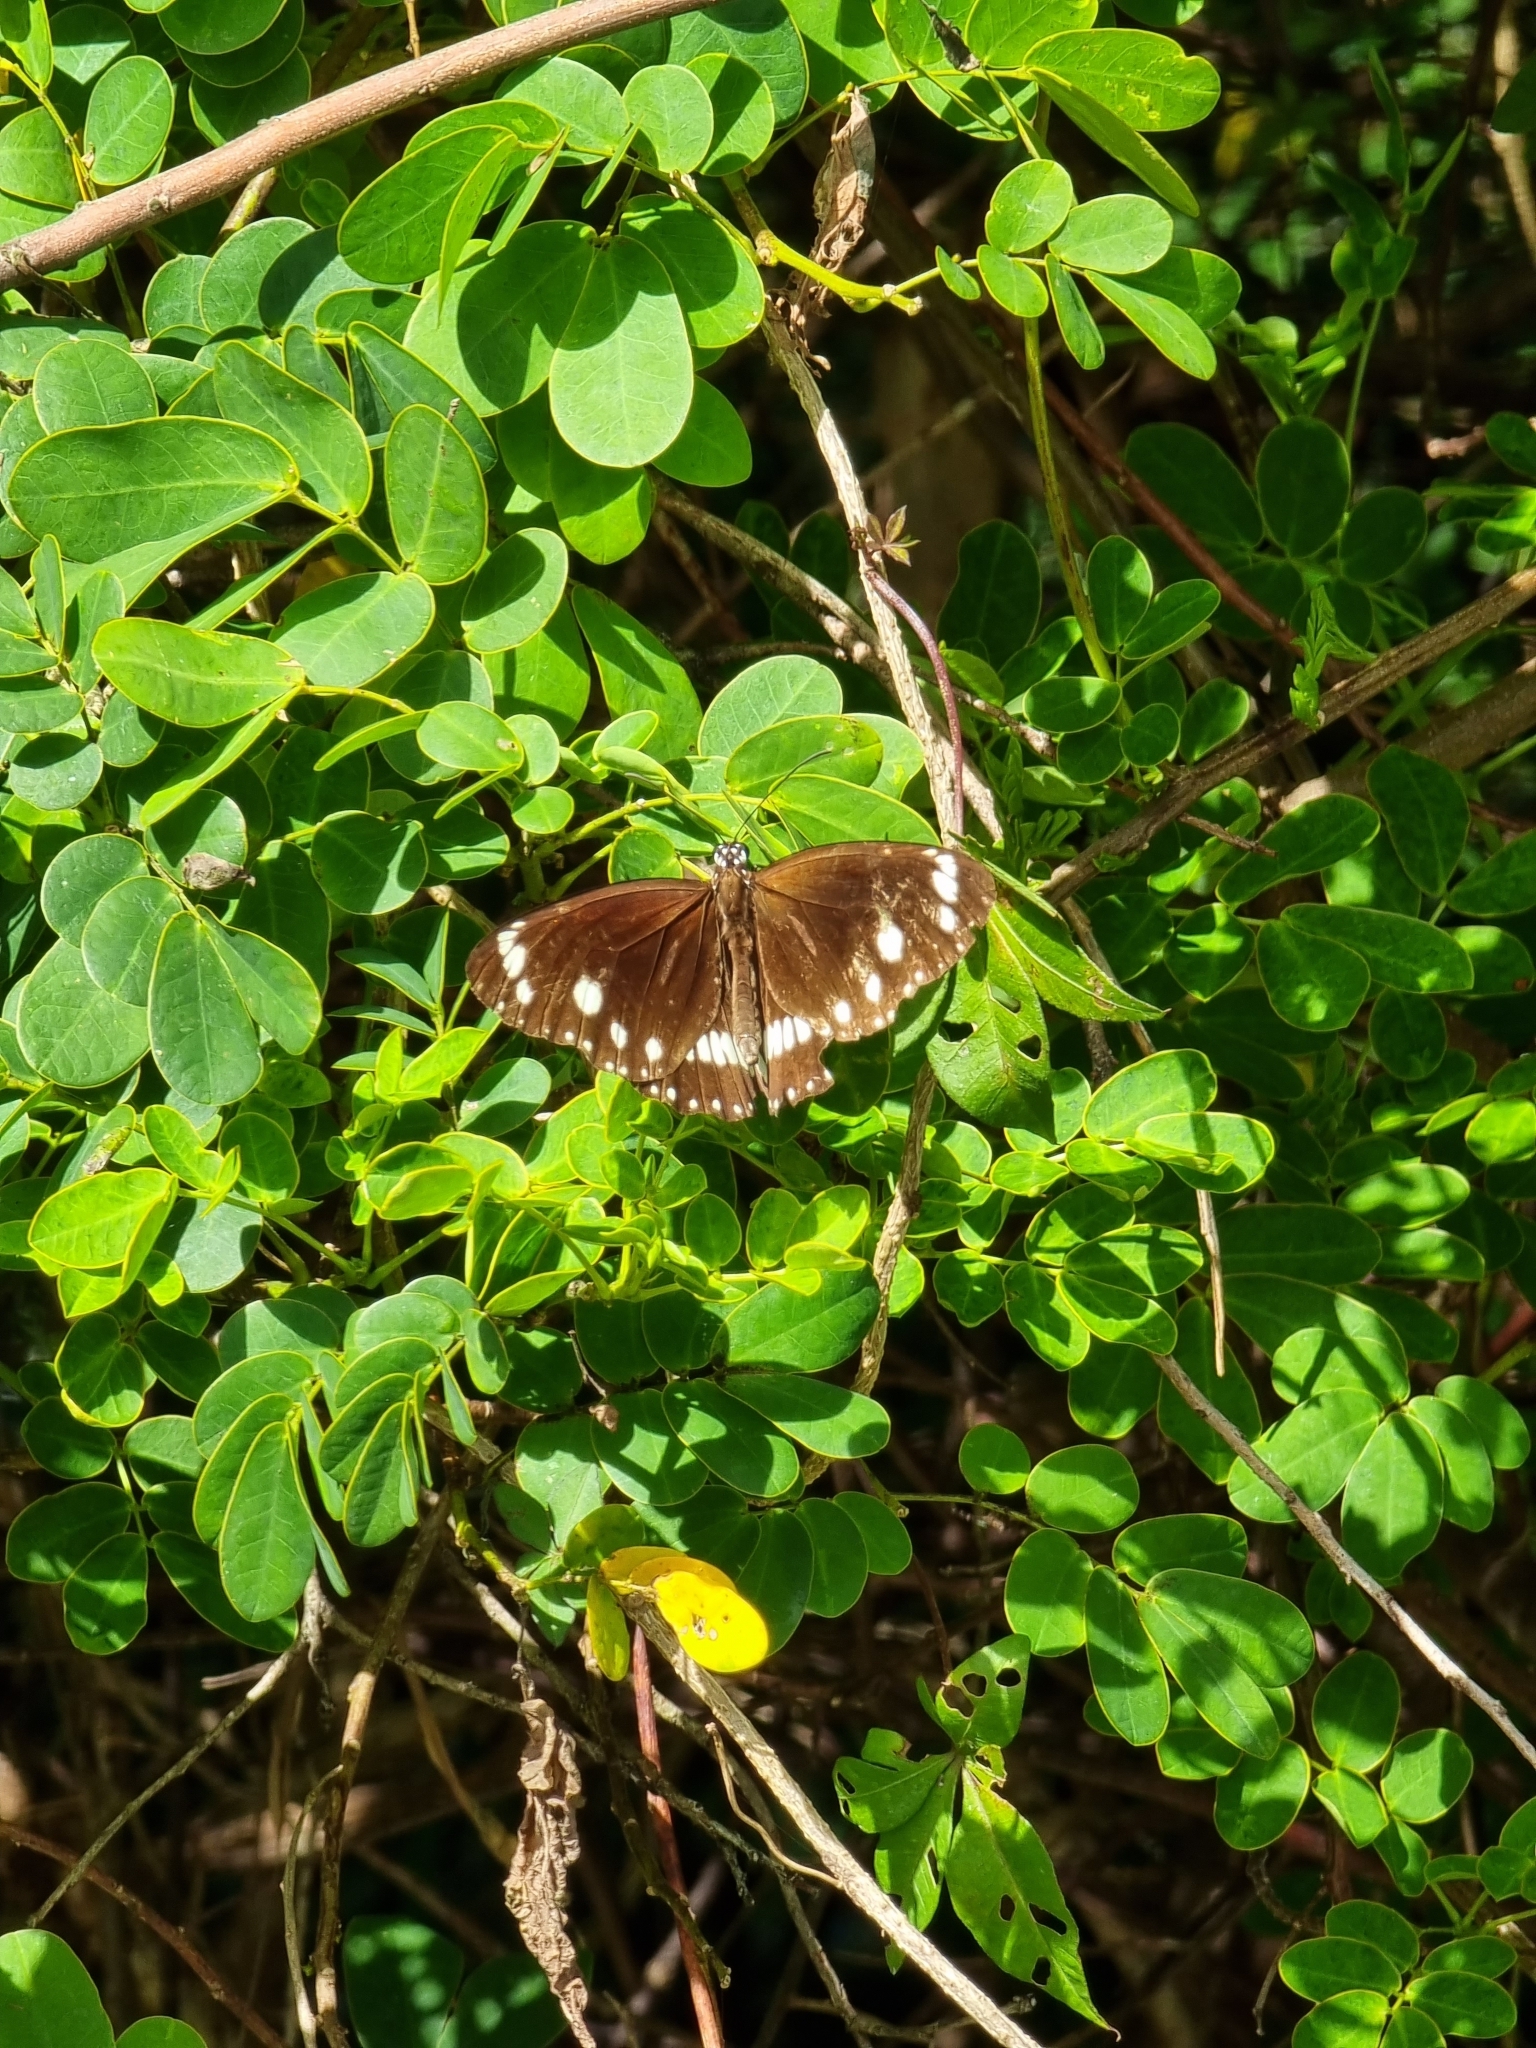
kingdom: Animalia
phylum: Arthropoda
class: Insecta
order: Lepidoptera
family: Nymphalidae
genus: Euploea
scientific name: Euploea core
